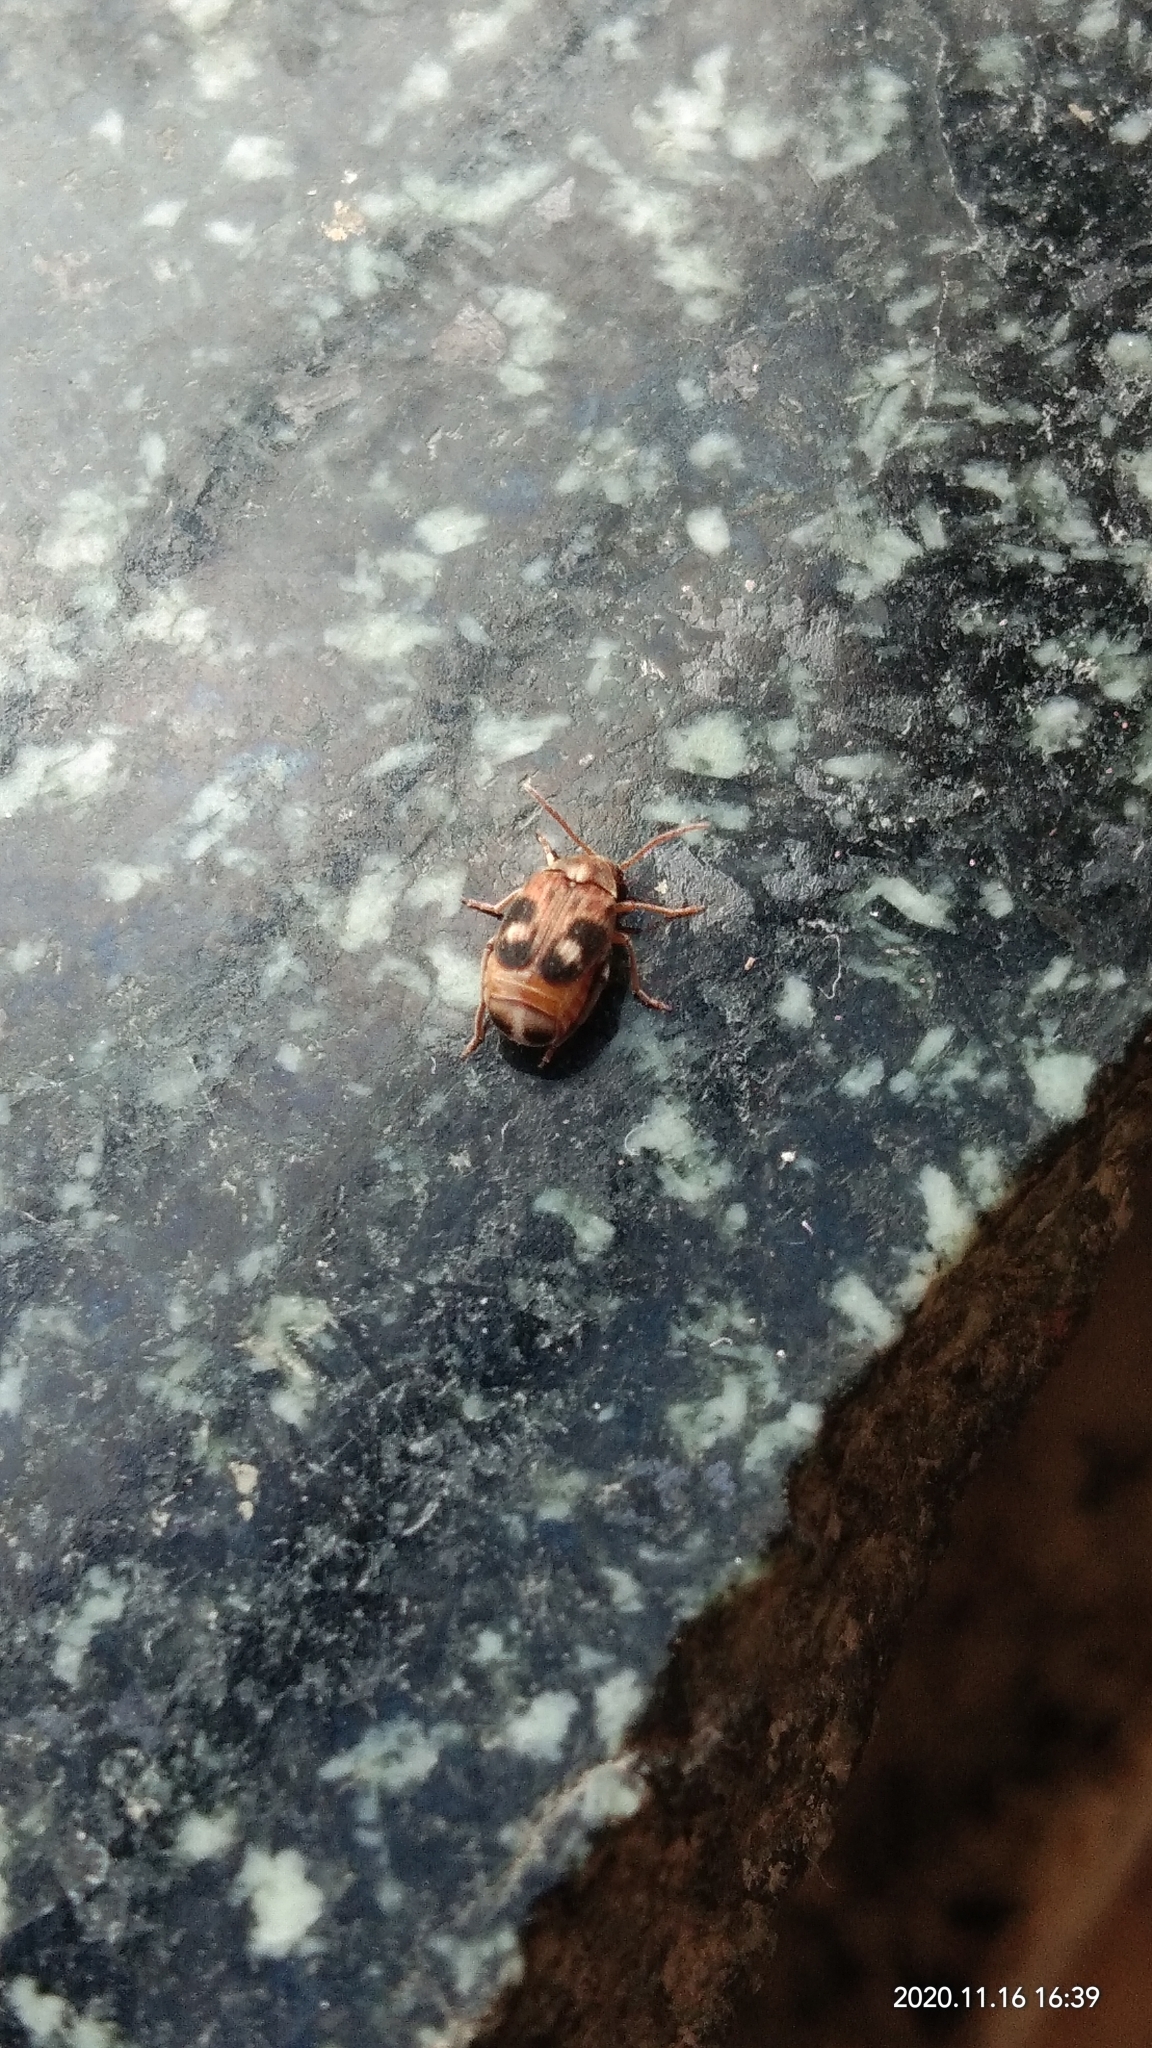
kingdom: Animalia
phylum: Arthropoda
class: Insecta
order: Coleoptera
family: Chrysomelidae
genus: Callosobruchus
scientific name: Callosobruchus maculatus
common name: Southern cowpea weevil
